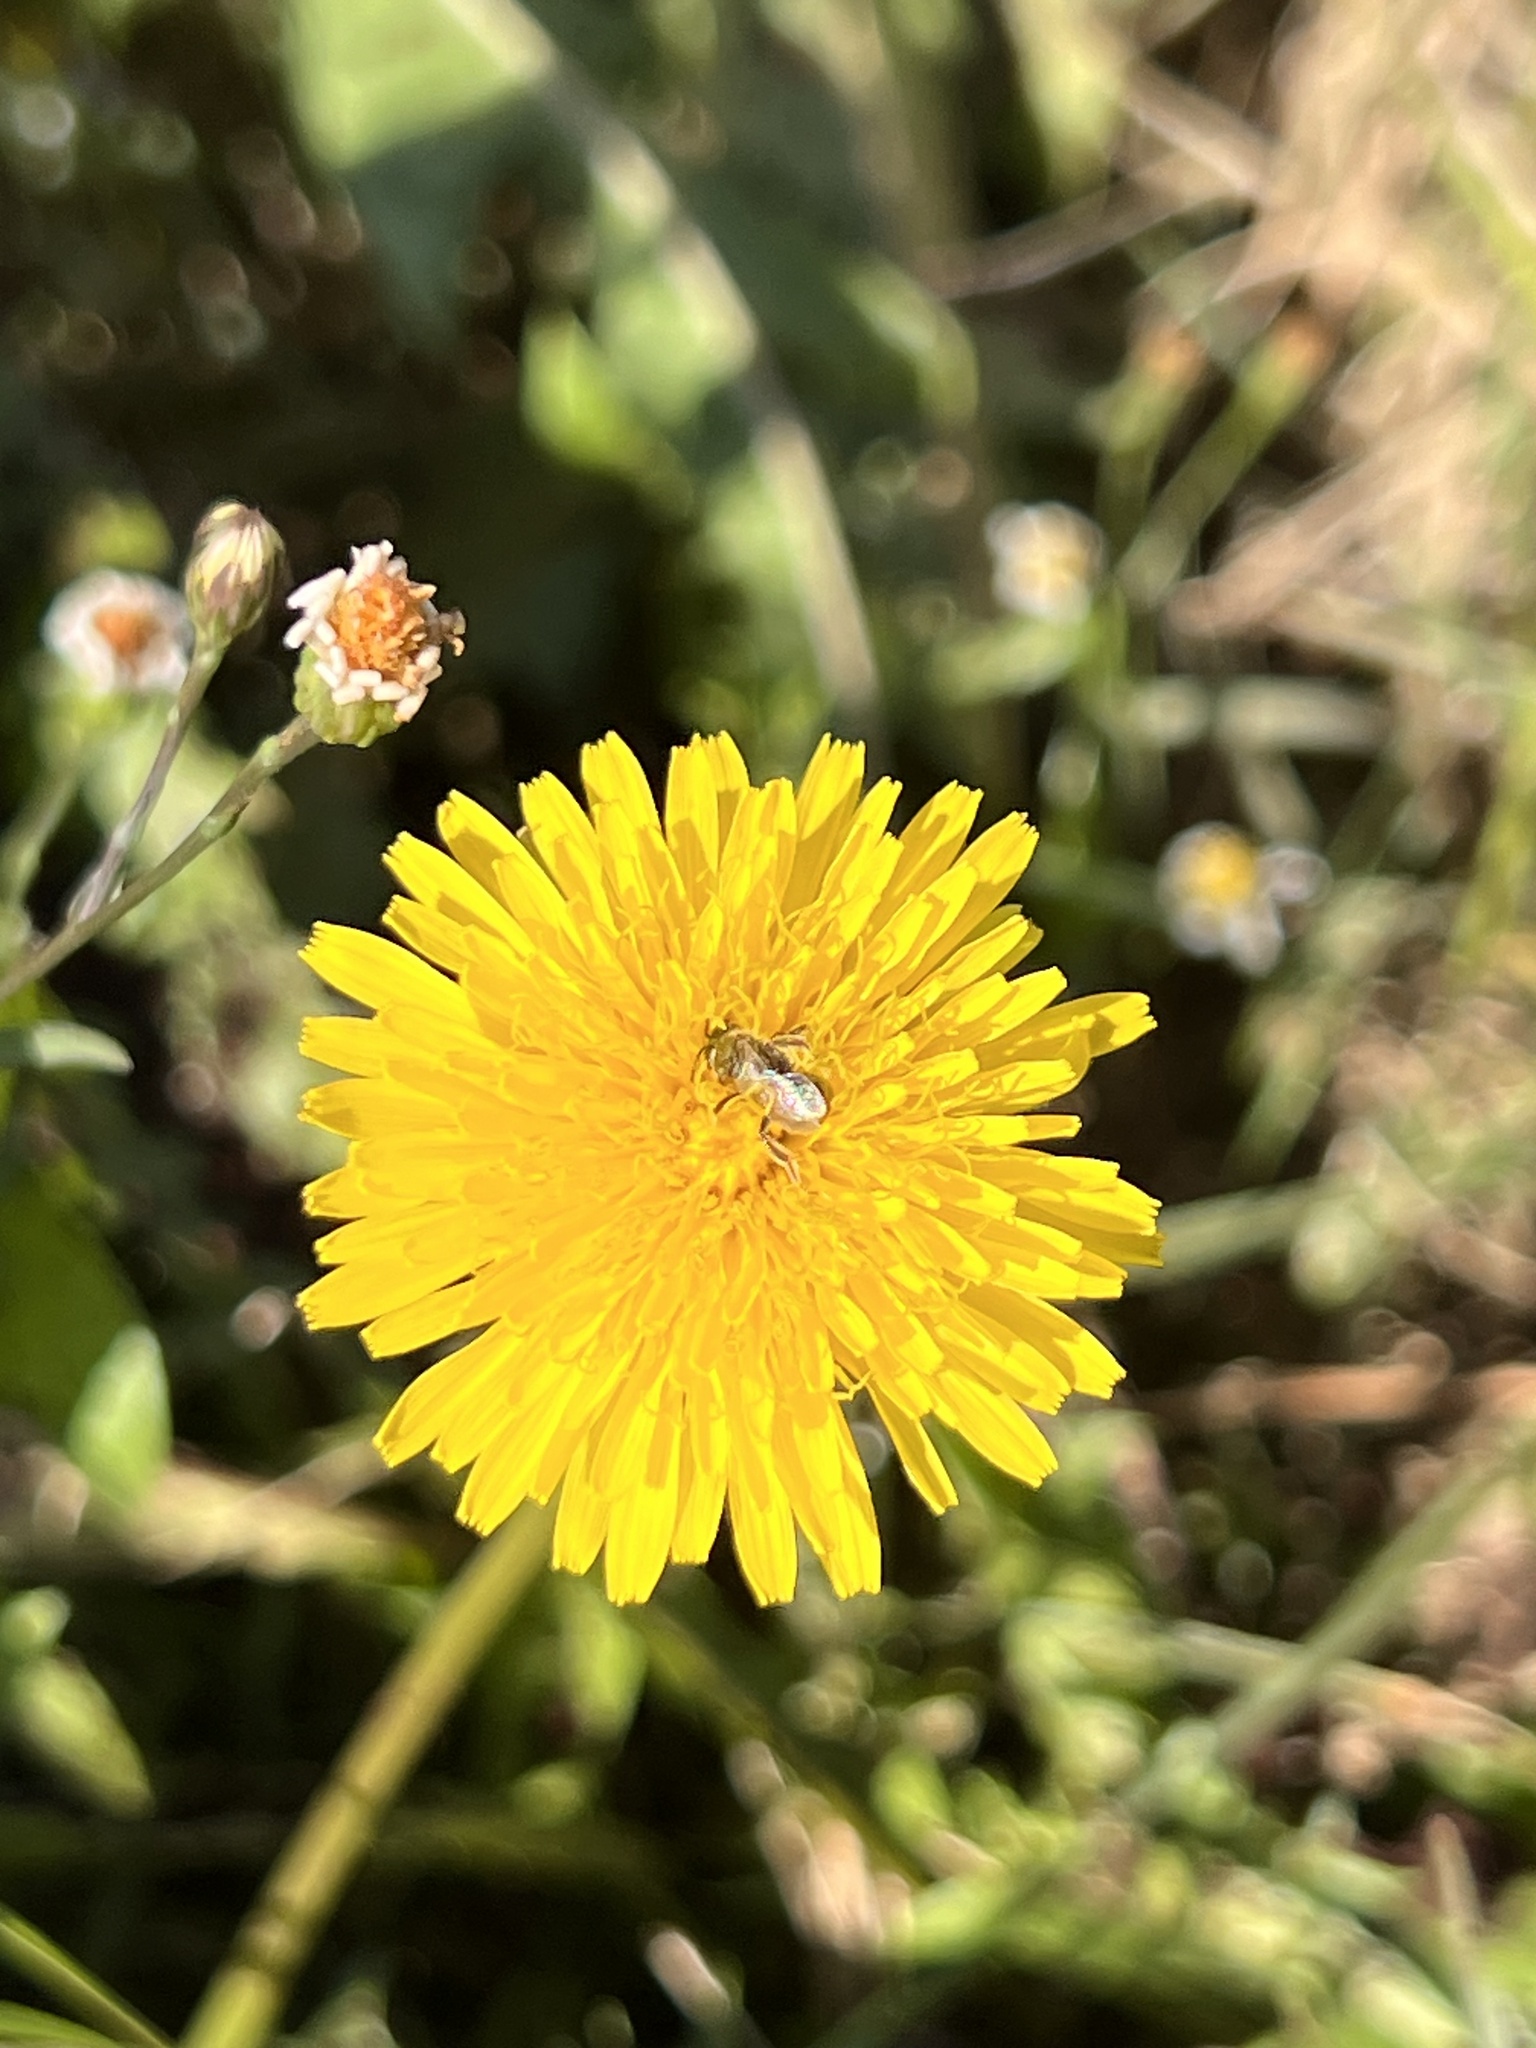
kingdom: Plantae
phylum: Tracheophyta
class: Magnoliopsida
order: Asterales
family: Asteraceae
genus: Taraxacum
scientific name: Taraxacum officinale
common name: Common dandelion
